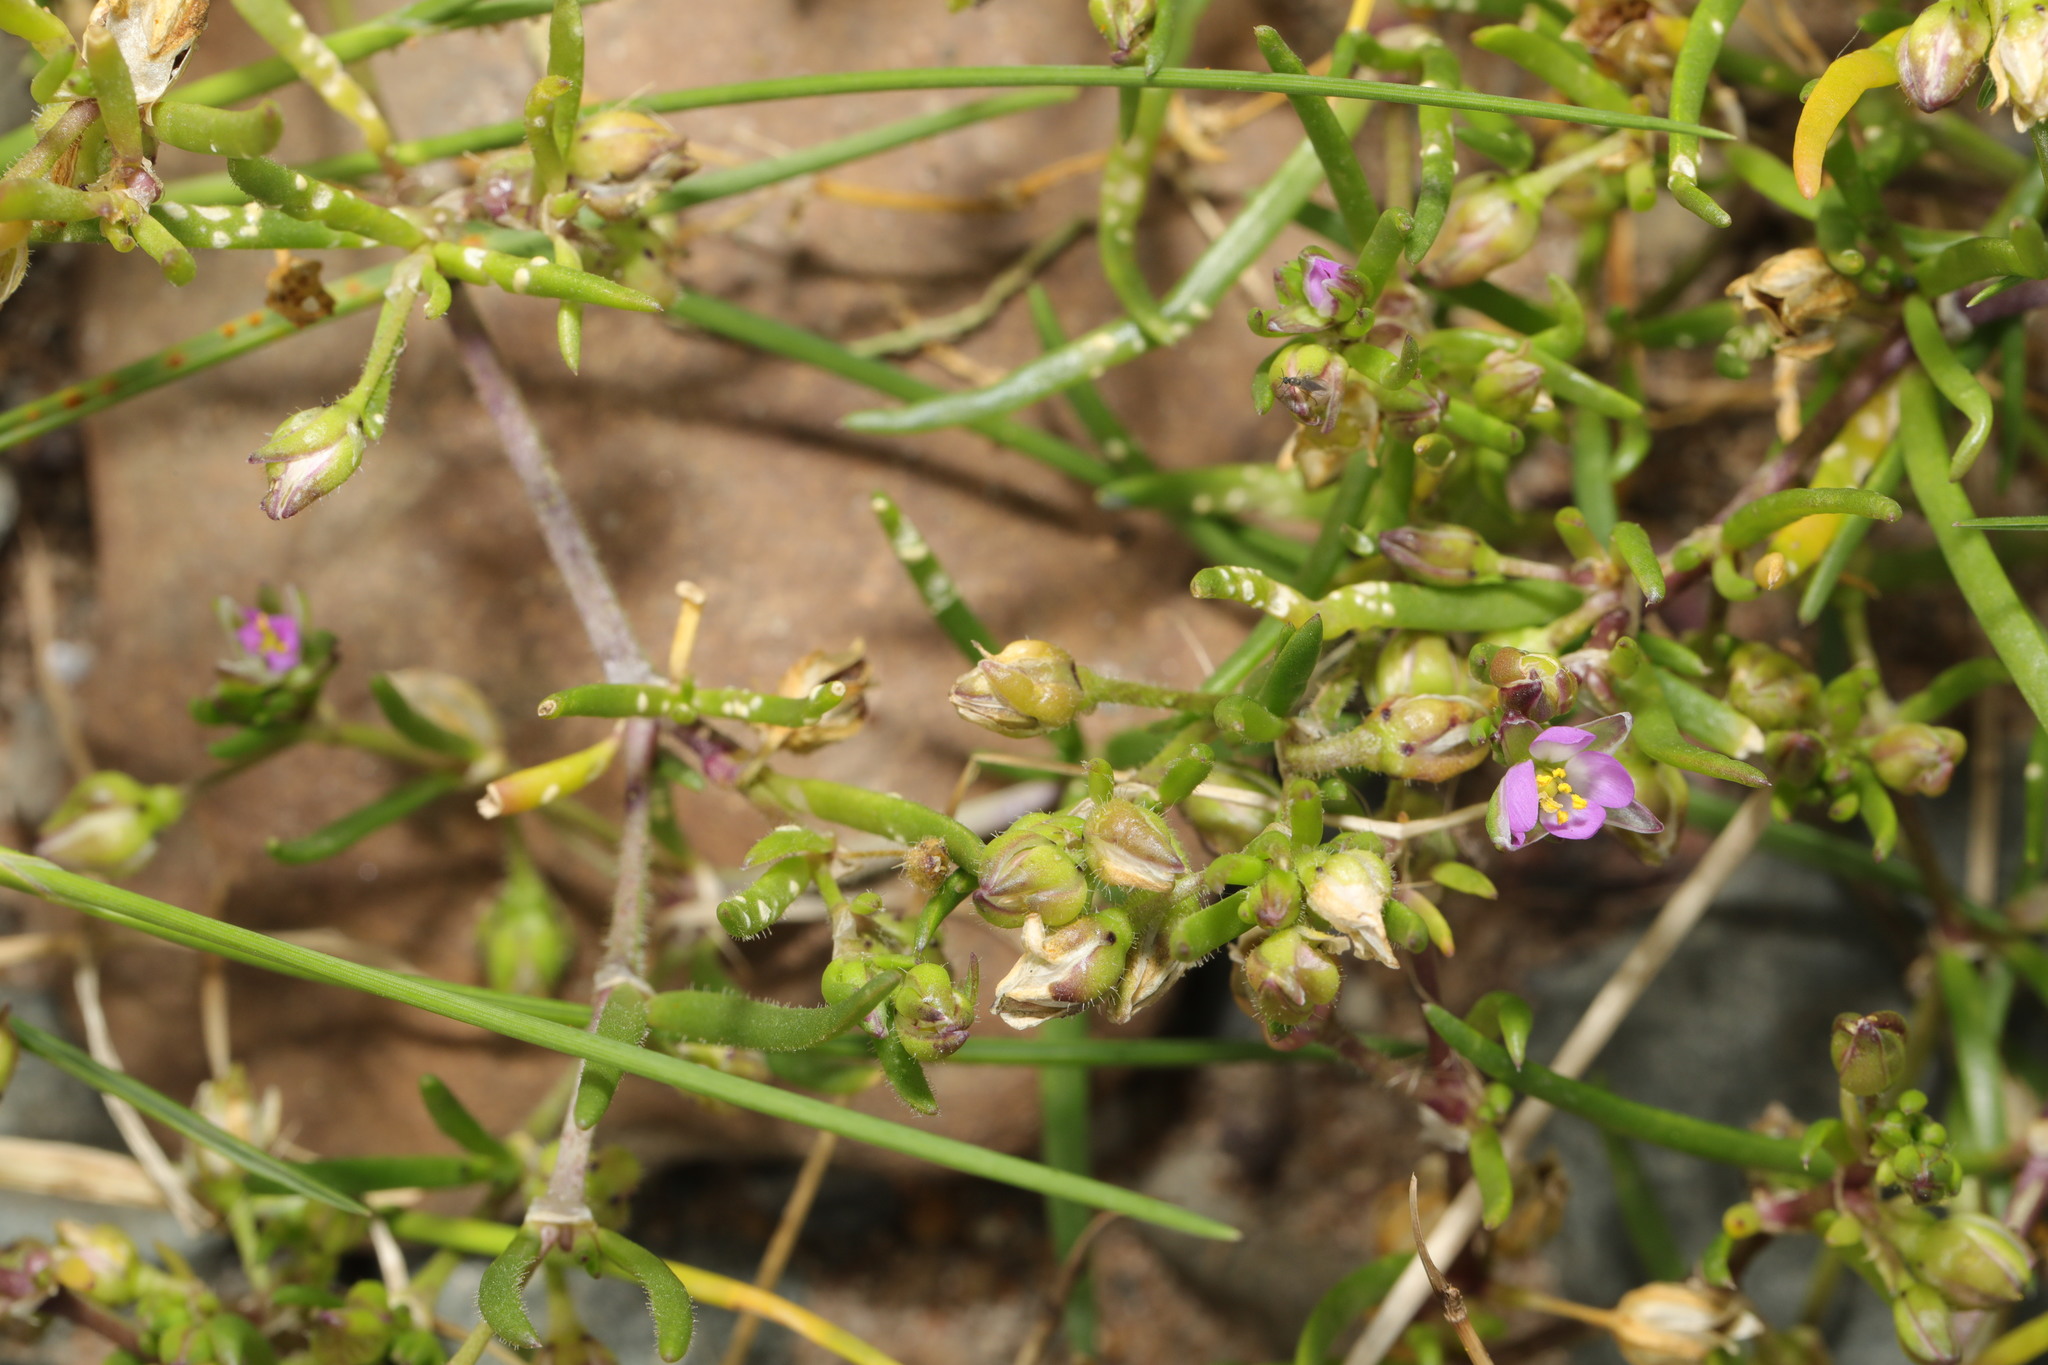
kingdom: Plantae
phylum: Tracheophyta
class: Magnoliopsida
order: Caryophyllales
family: Caryophyllaceae
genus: Spergularia
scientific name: Spergularia marina
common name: Lesser sea-spurrey
